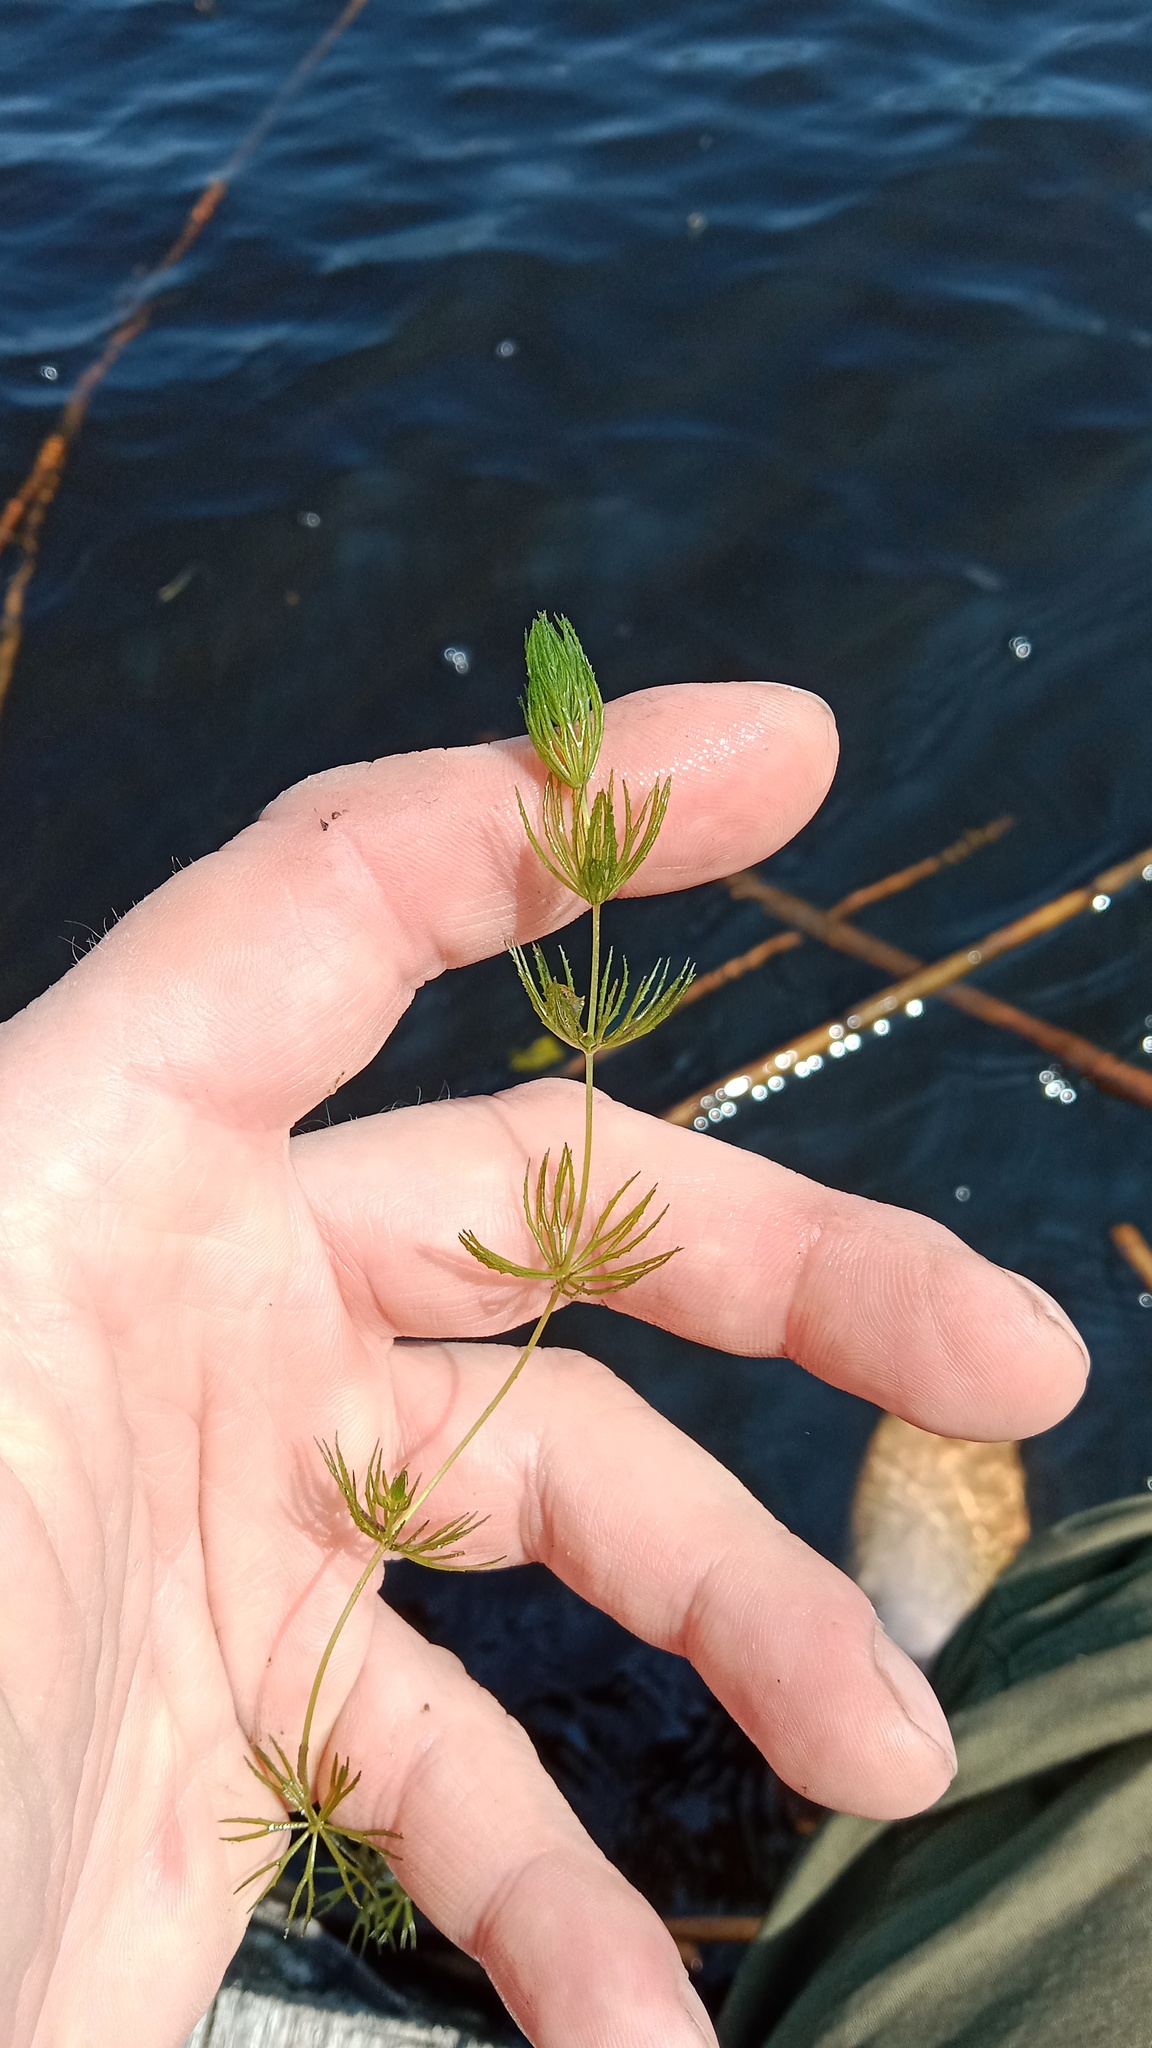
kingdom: Plantae
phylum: Tracheophyta
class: Magnoliopsida
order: Ceratophyllales
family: Ceratophyllaceae
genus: Ceratophyllum
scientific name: Ceratophyllum demersum
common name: Rigid hornwort
